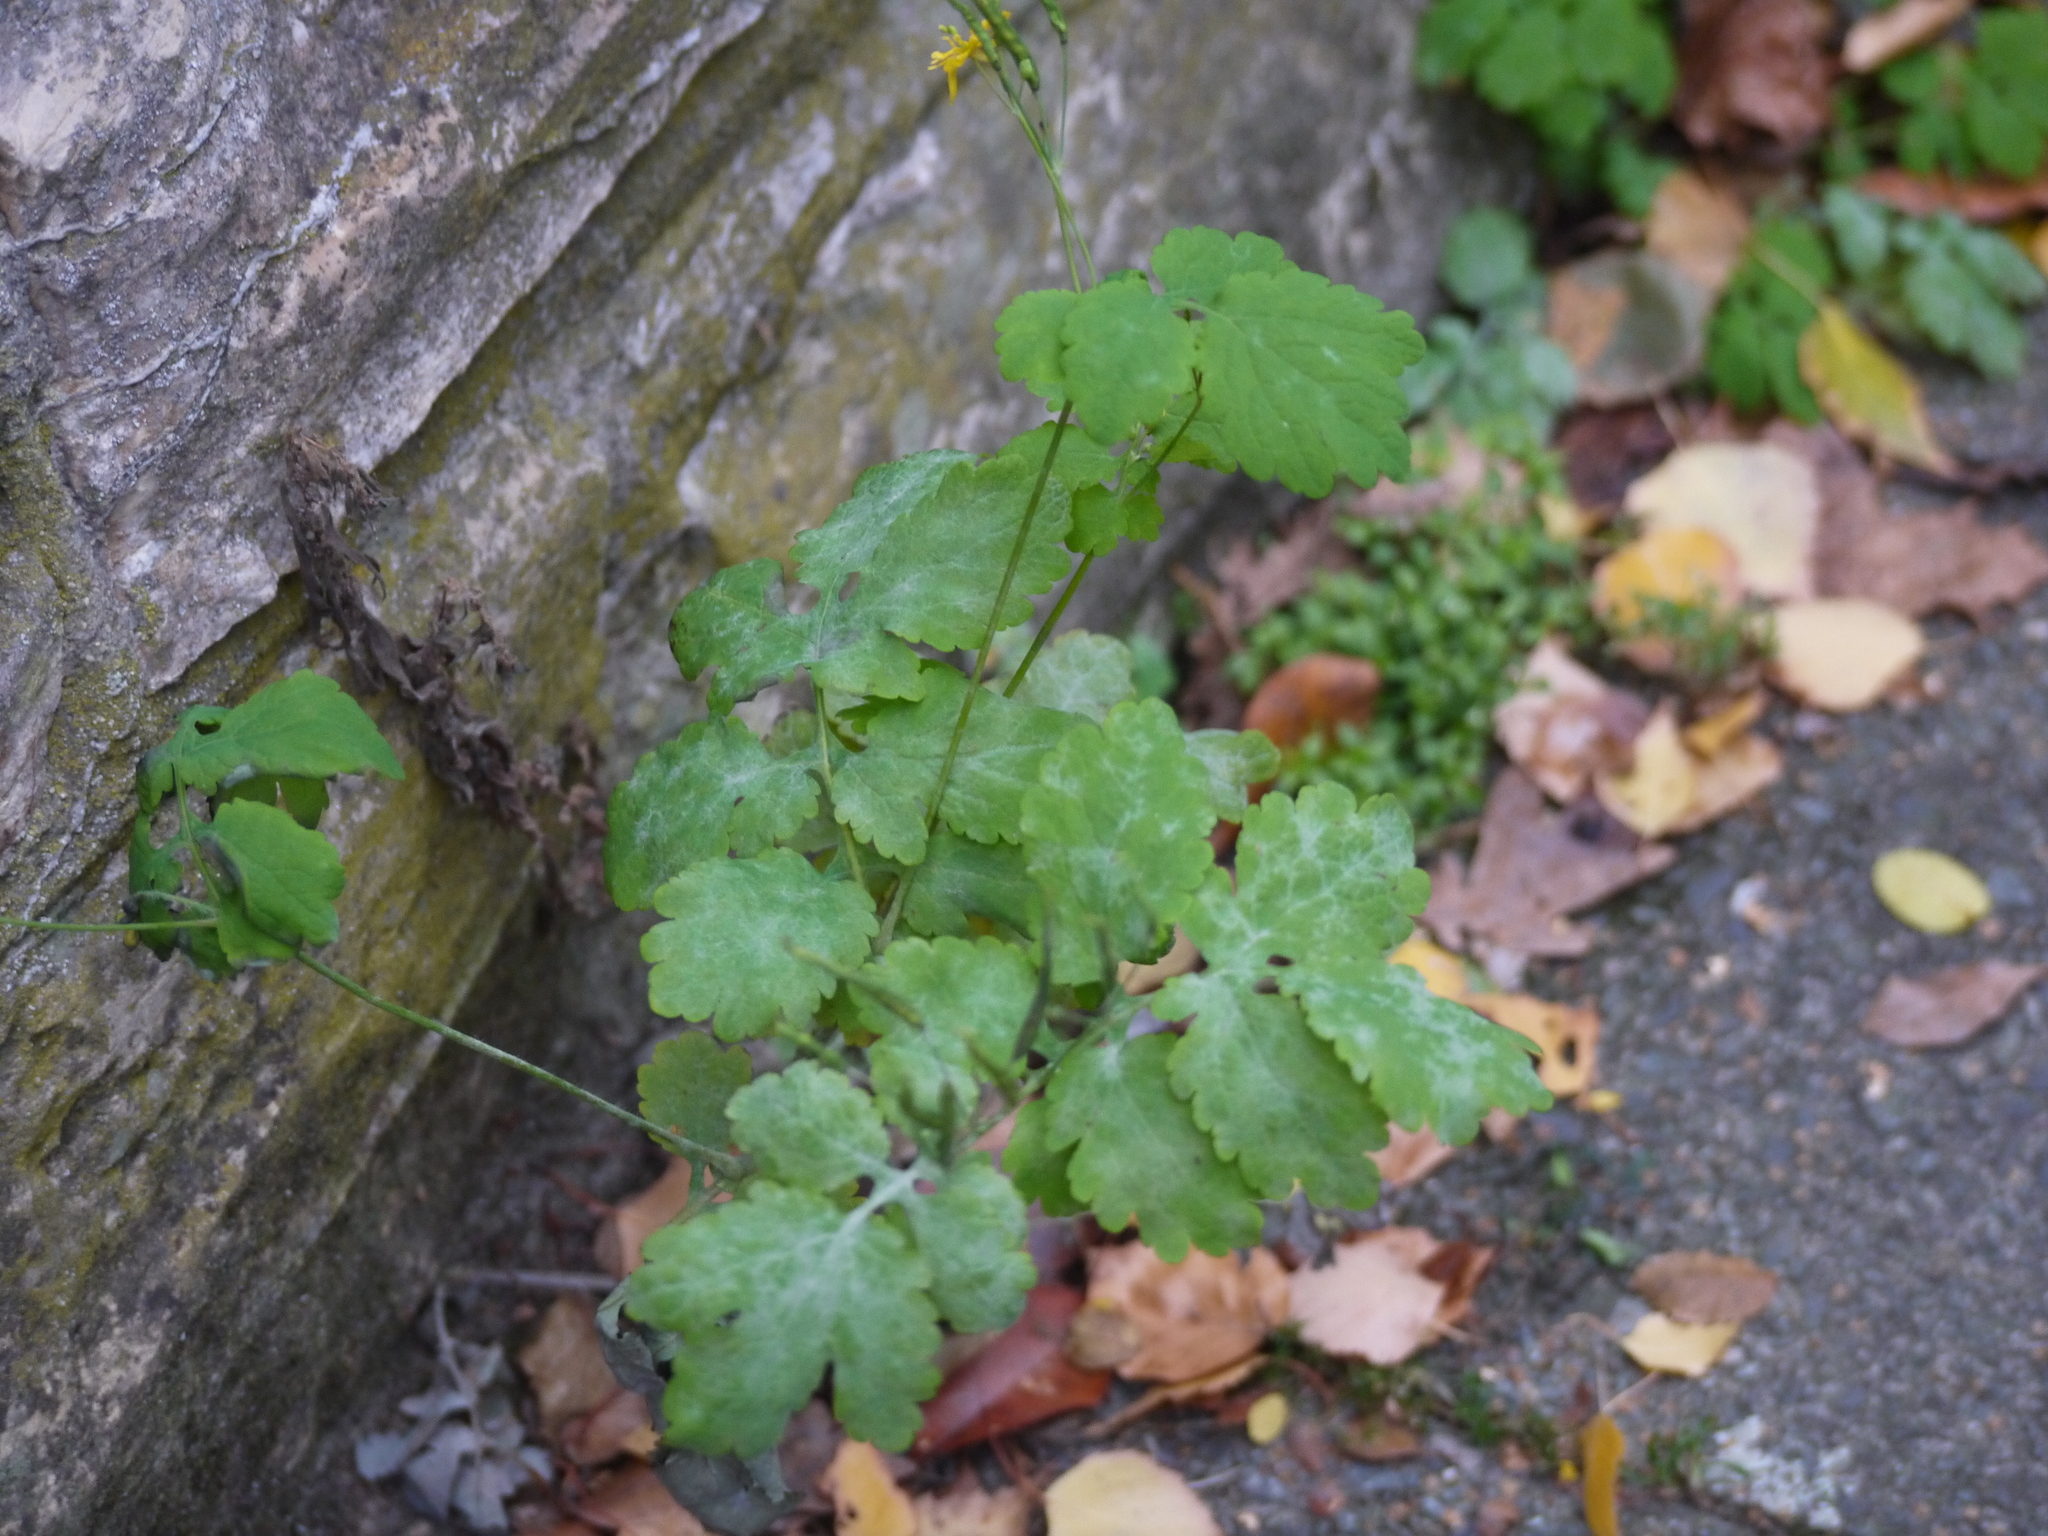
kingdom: Plantae
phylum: Tracheophyta
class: Magnoliopsida
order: Ranunculales
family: Papaveraceae
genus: Chelidonium
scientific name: Chelidonium majus
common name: Greater celandine
